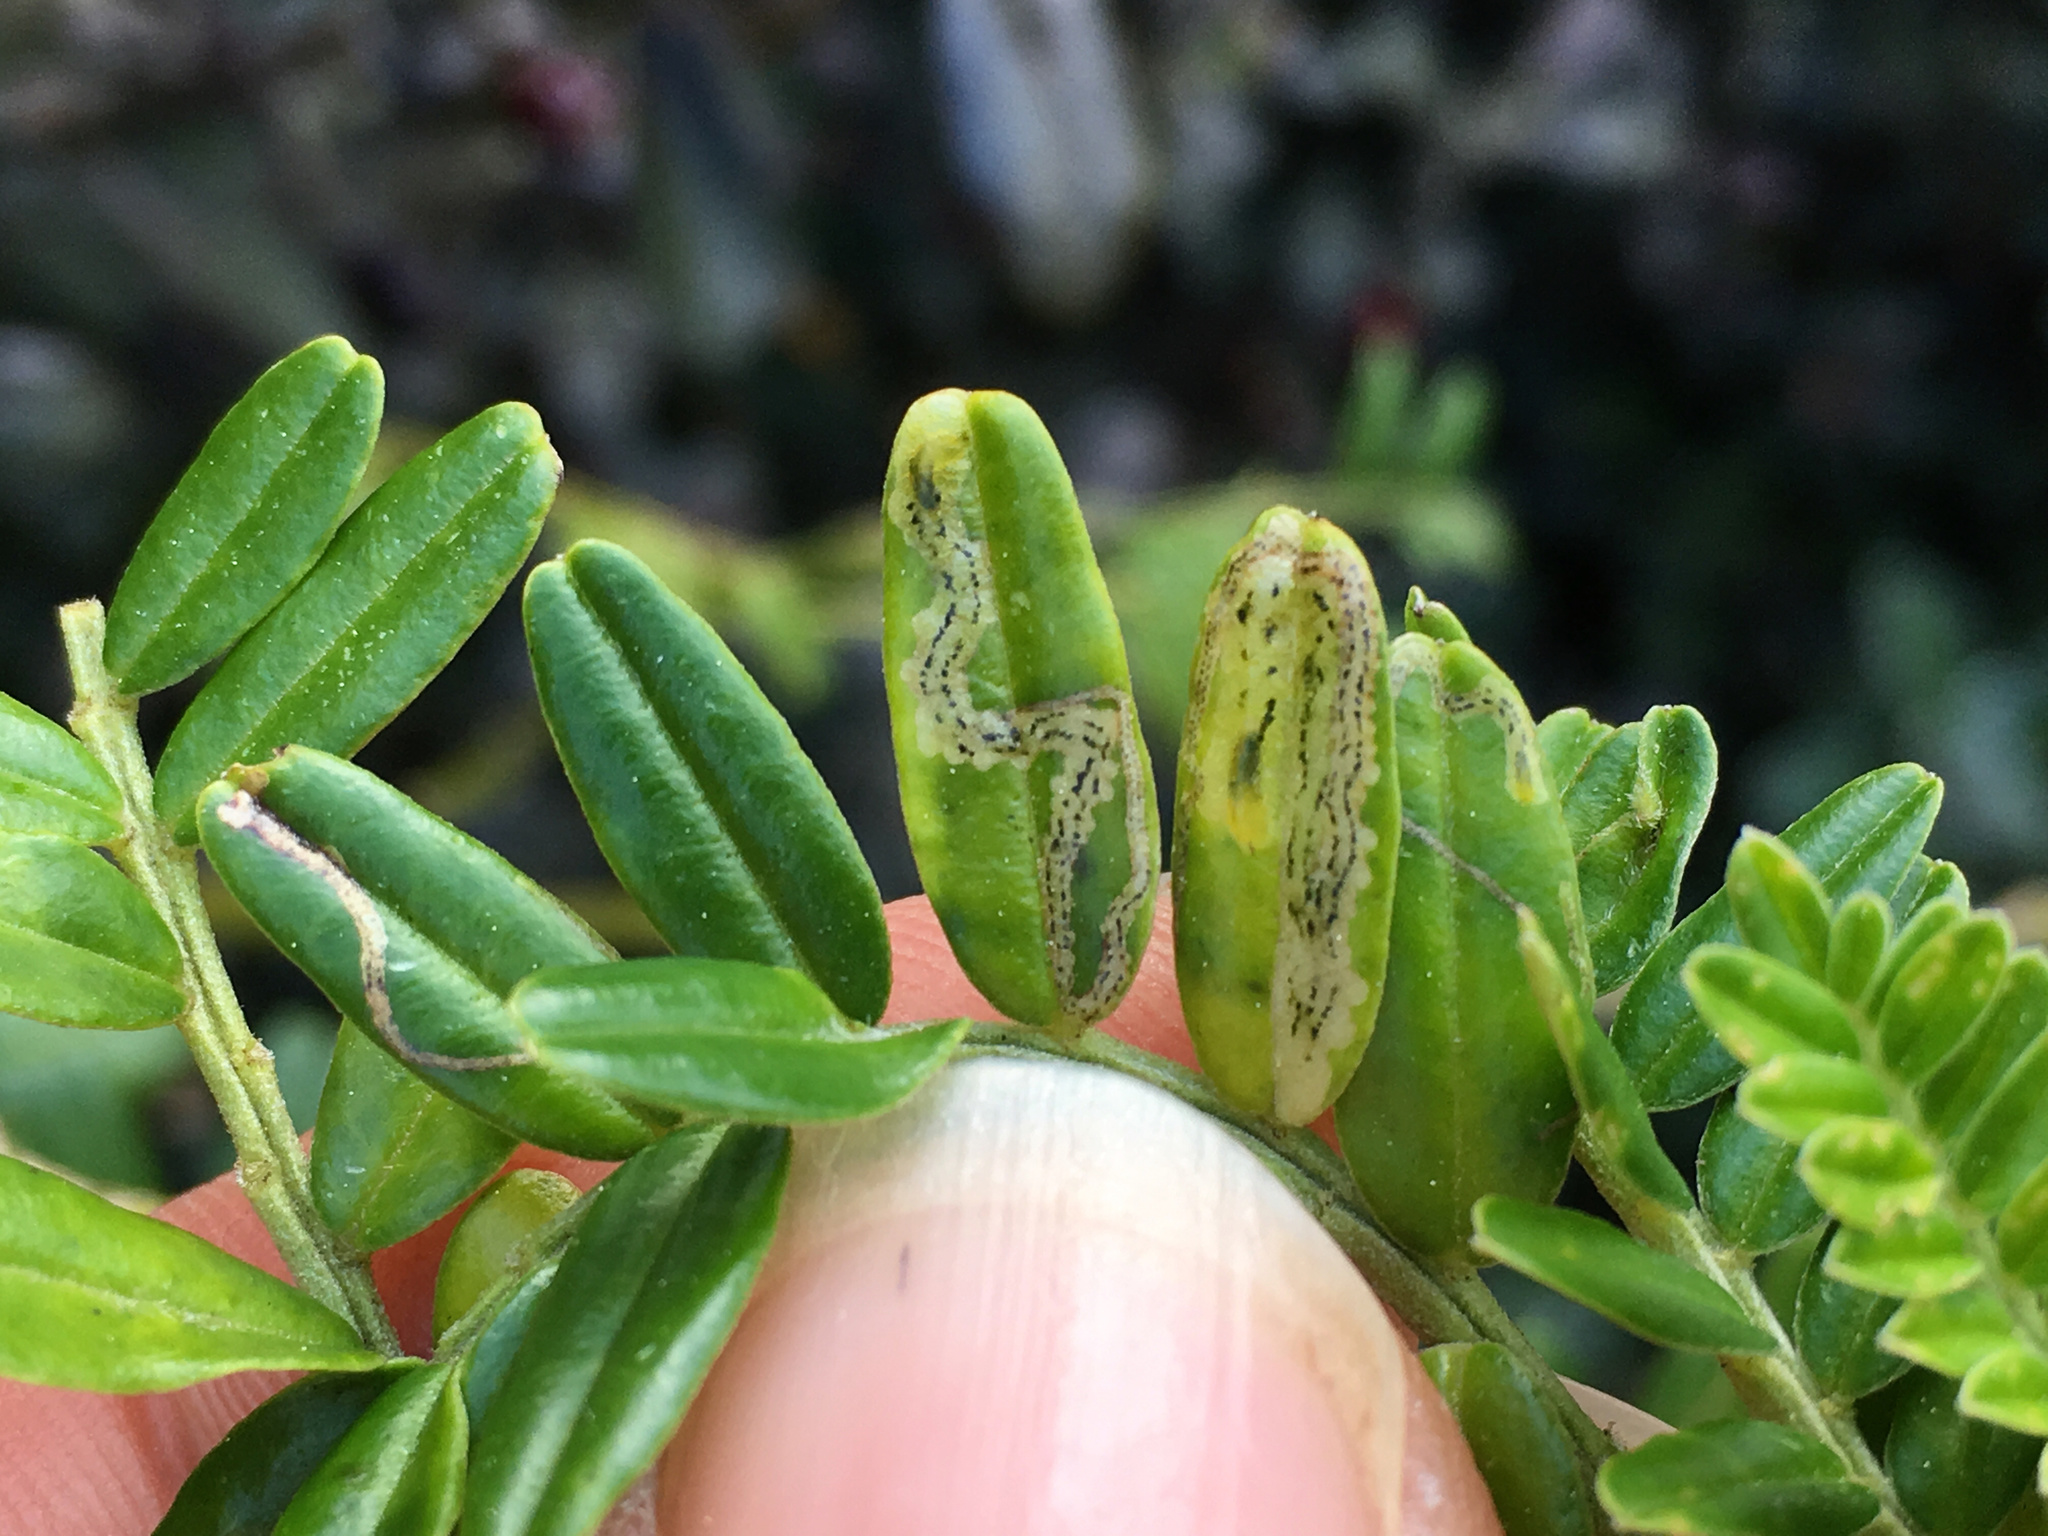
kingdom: Animalia
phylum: Arthropoda
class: Insecta
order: Diptera
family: Agromyzidae
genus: Liriomyza
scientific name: Liriomyza clianthi
